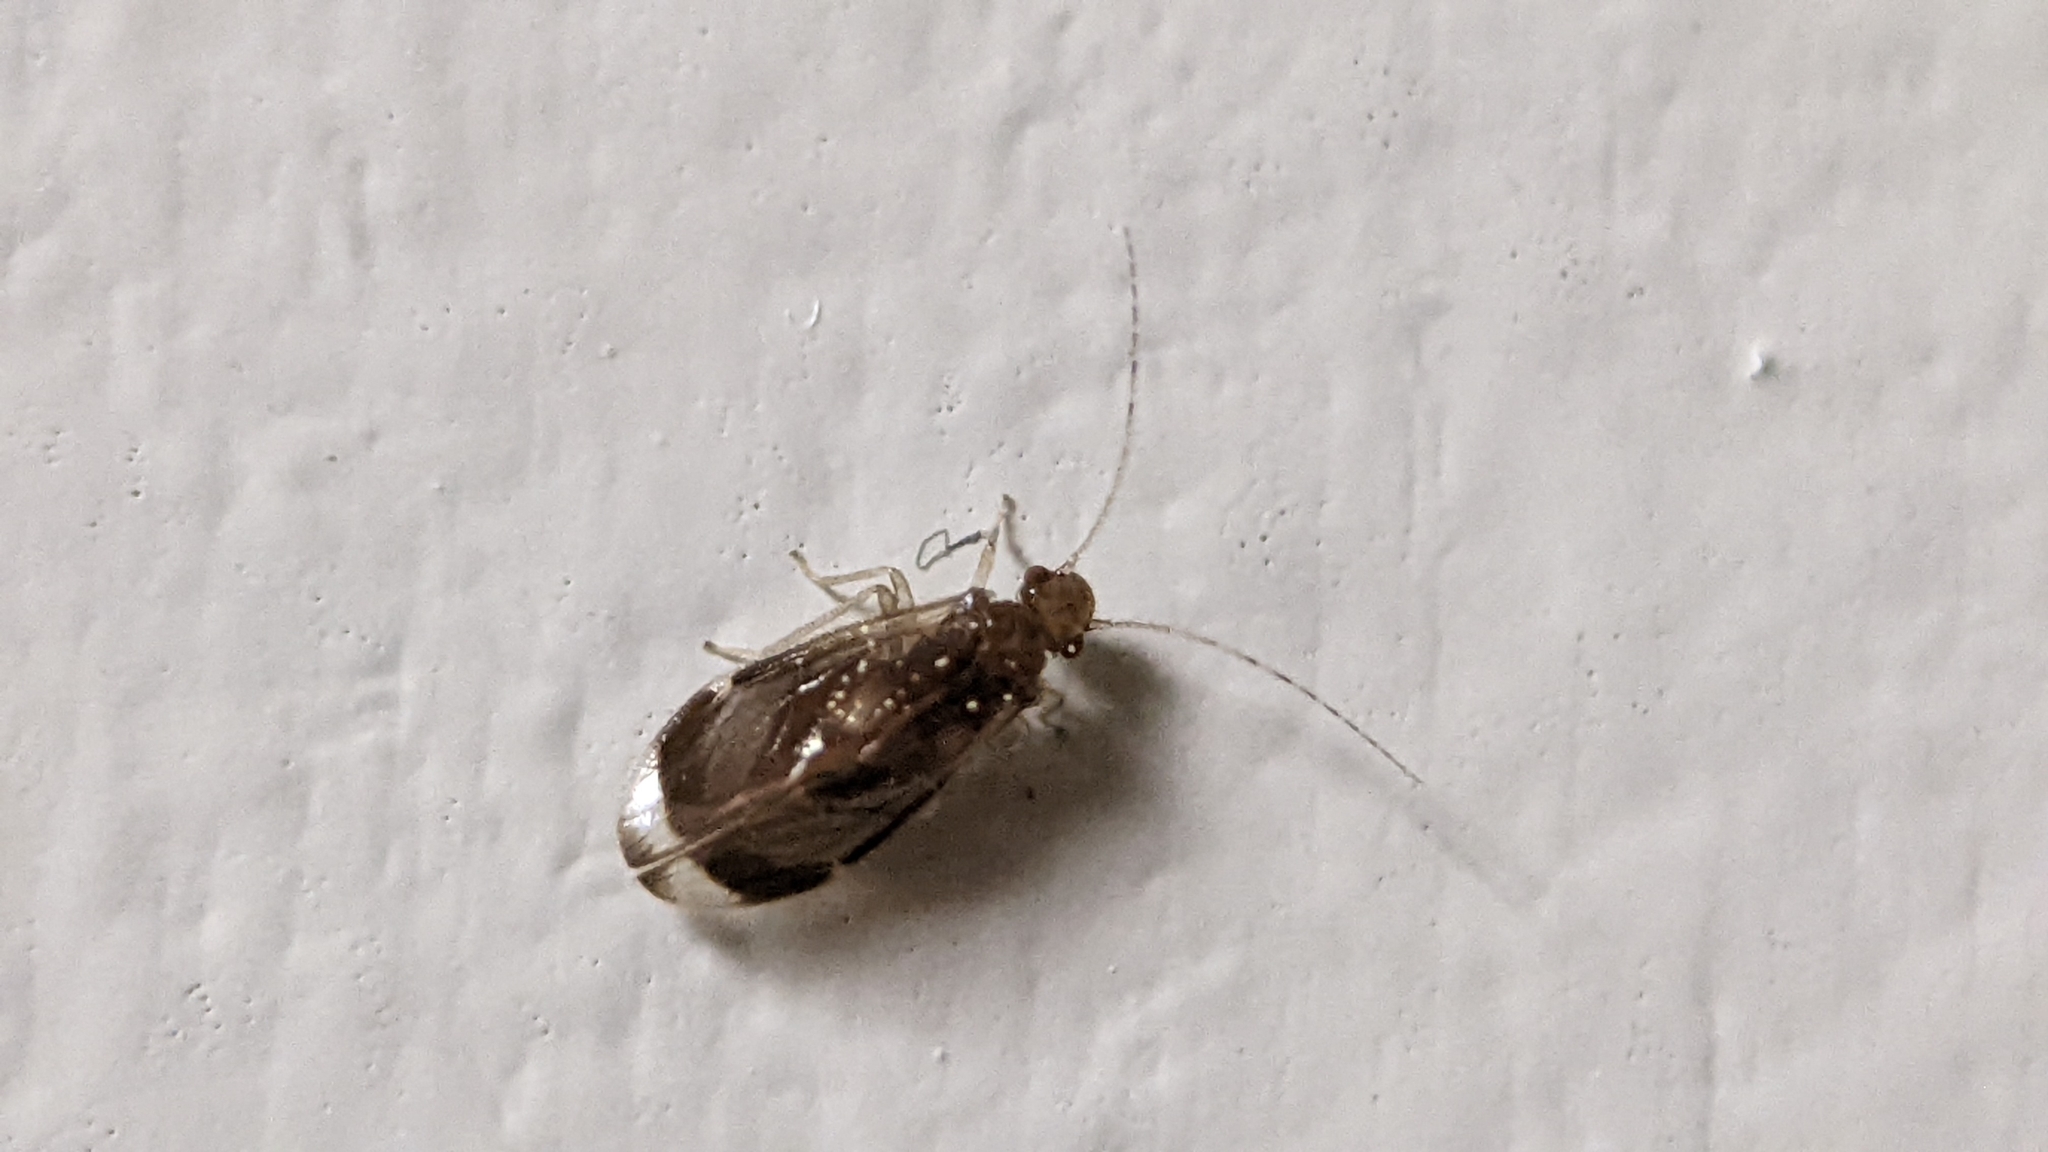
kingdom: Animalia
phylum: Arthropoda
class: Insecta
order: Psocodea
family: Amphipsocidae
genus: Polypsocus
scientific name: Polypsocus corruptus
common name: Corrupt barklouse
